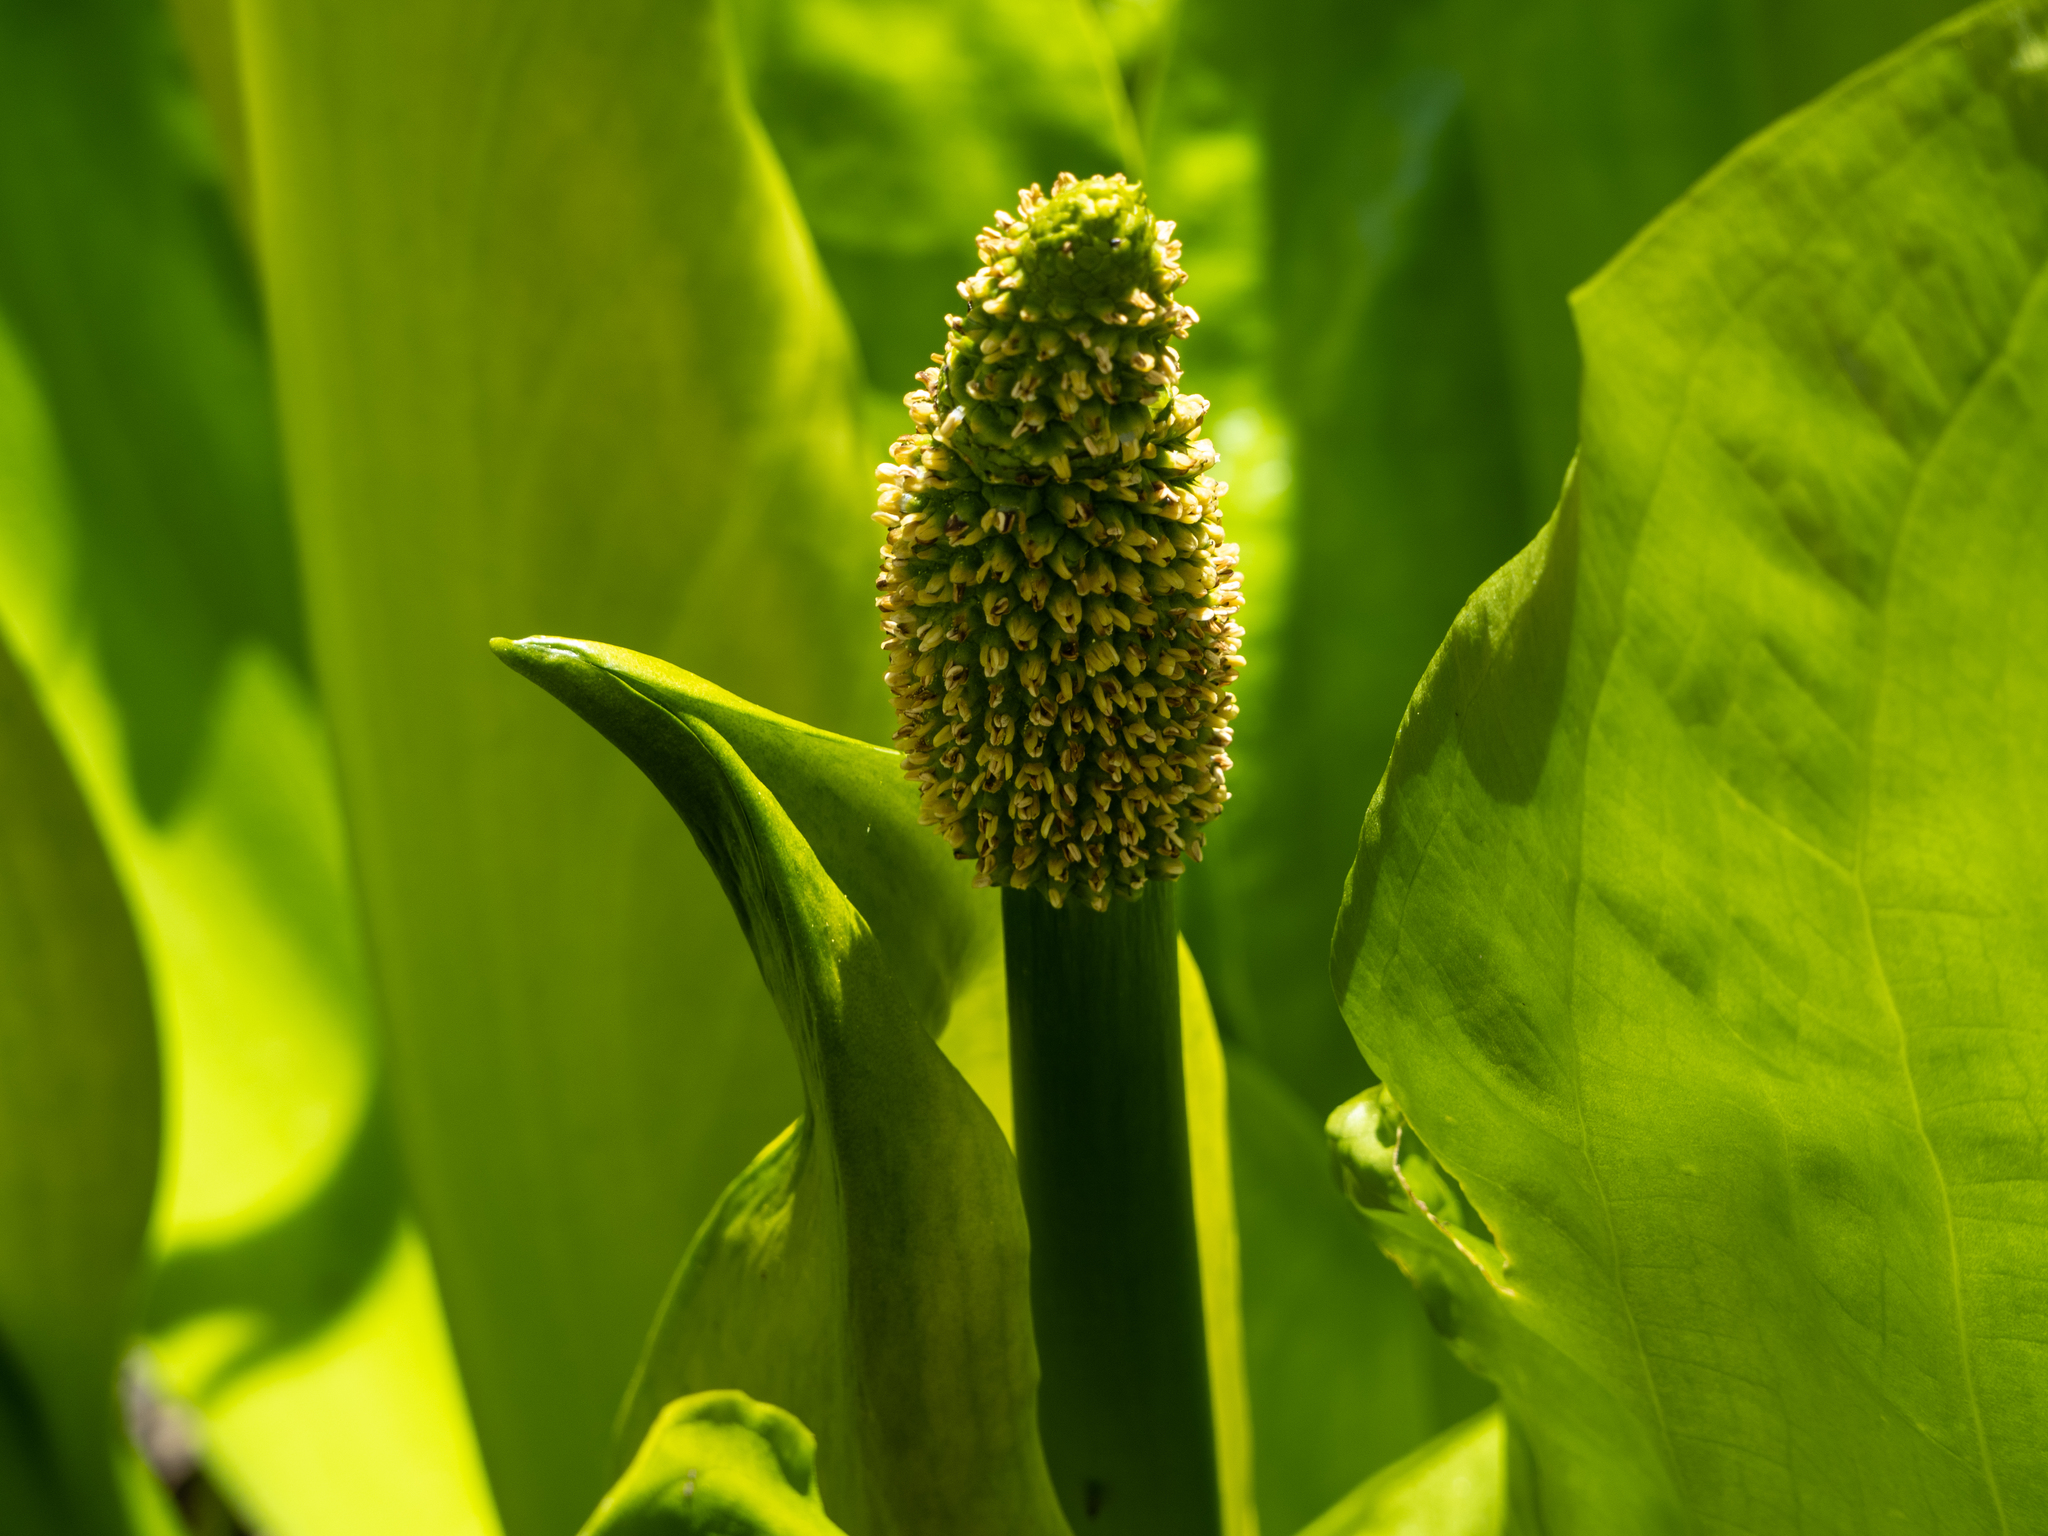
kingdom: Plantae
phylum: Tracheophyta
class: Liliopsida
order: Alismatales
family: Araceae
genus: Lysichiton
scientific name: Lysichiton americanus
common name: American skunk cabbage
